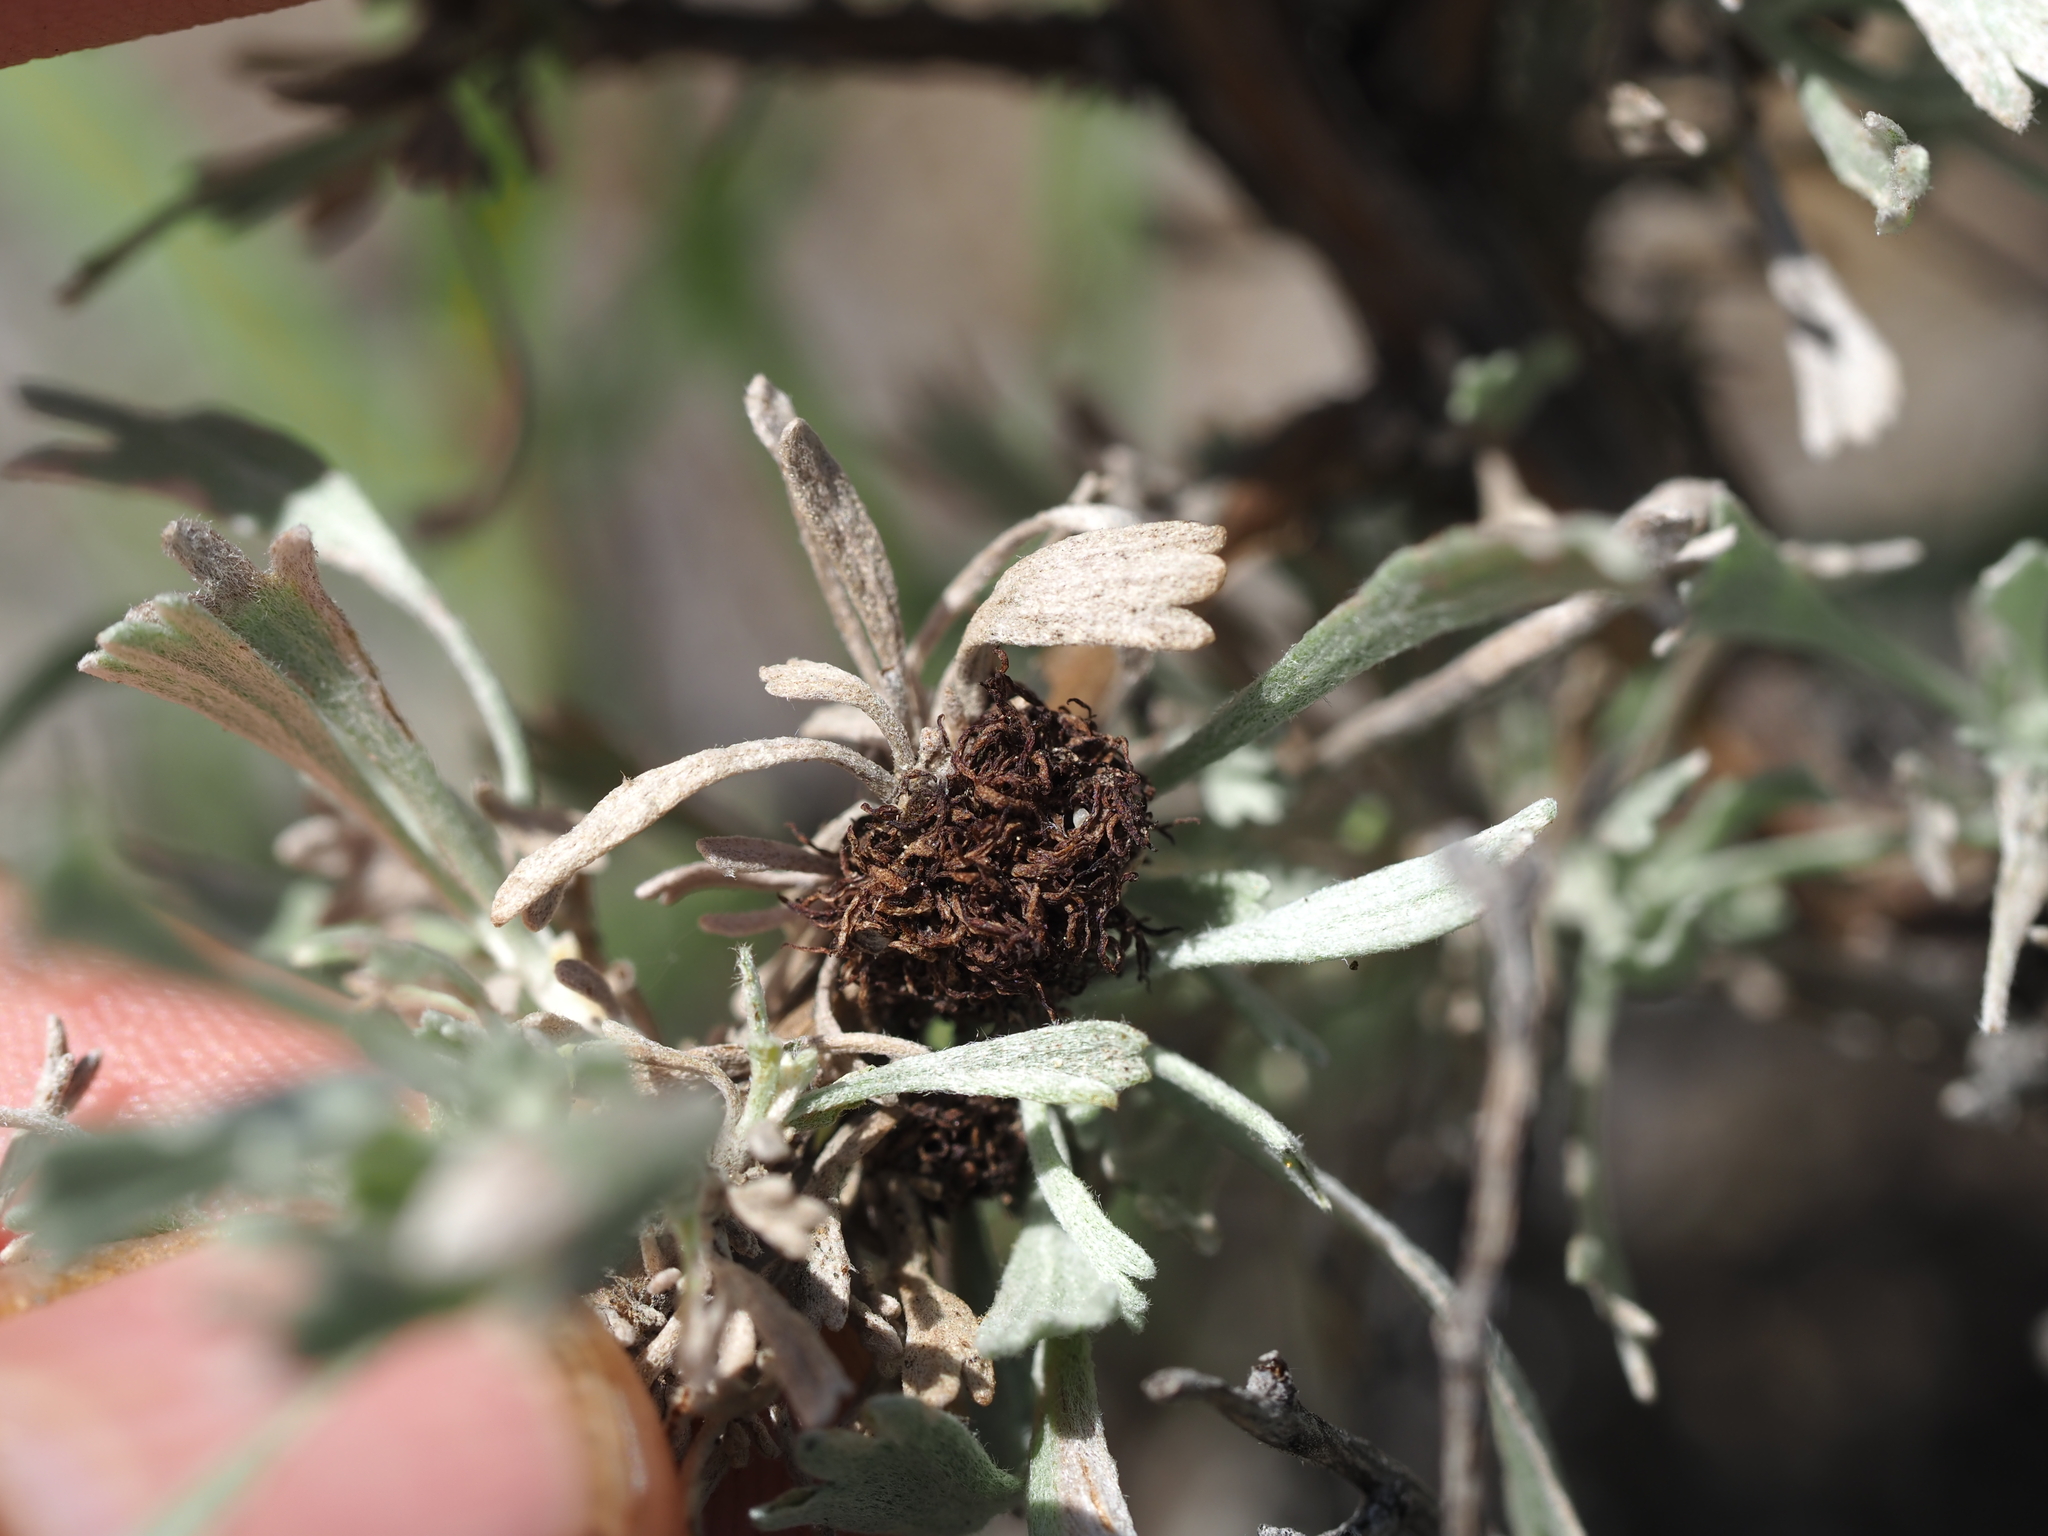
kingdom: Animalia
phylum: Arthropoda
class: Insecta
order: Diptera
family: Cecidomyiidae
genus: Rhopalomyia
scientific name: Rhopalomyia medusa
